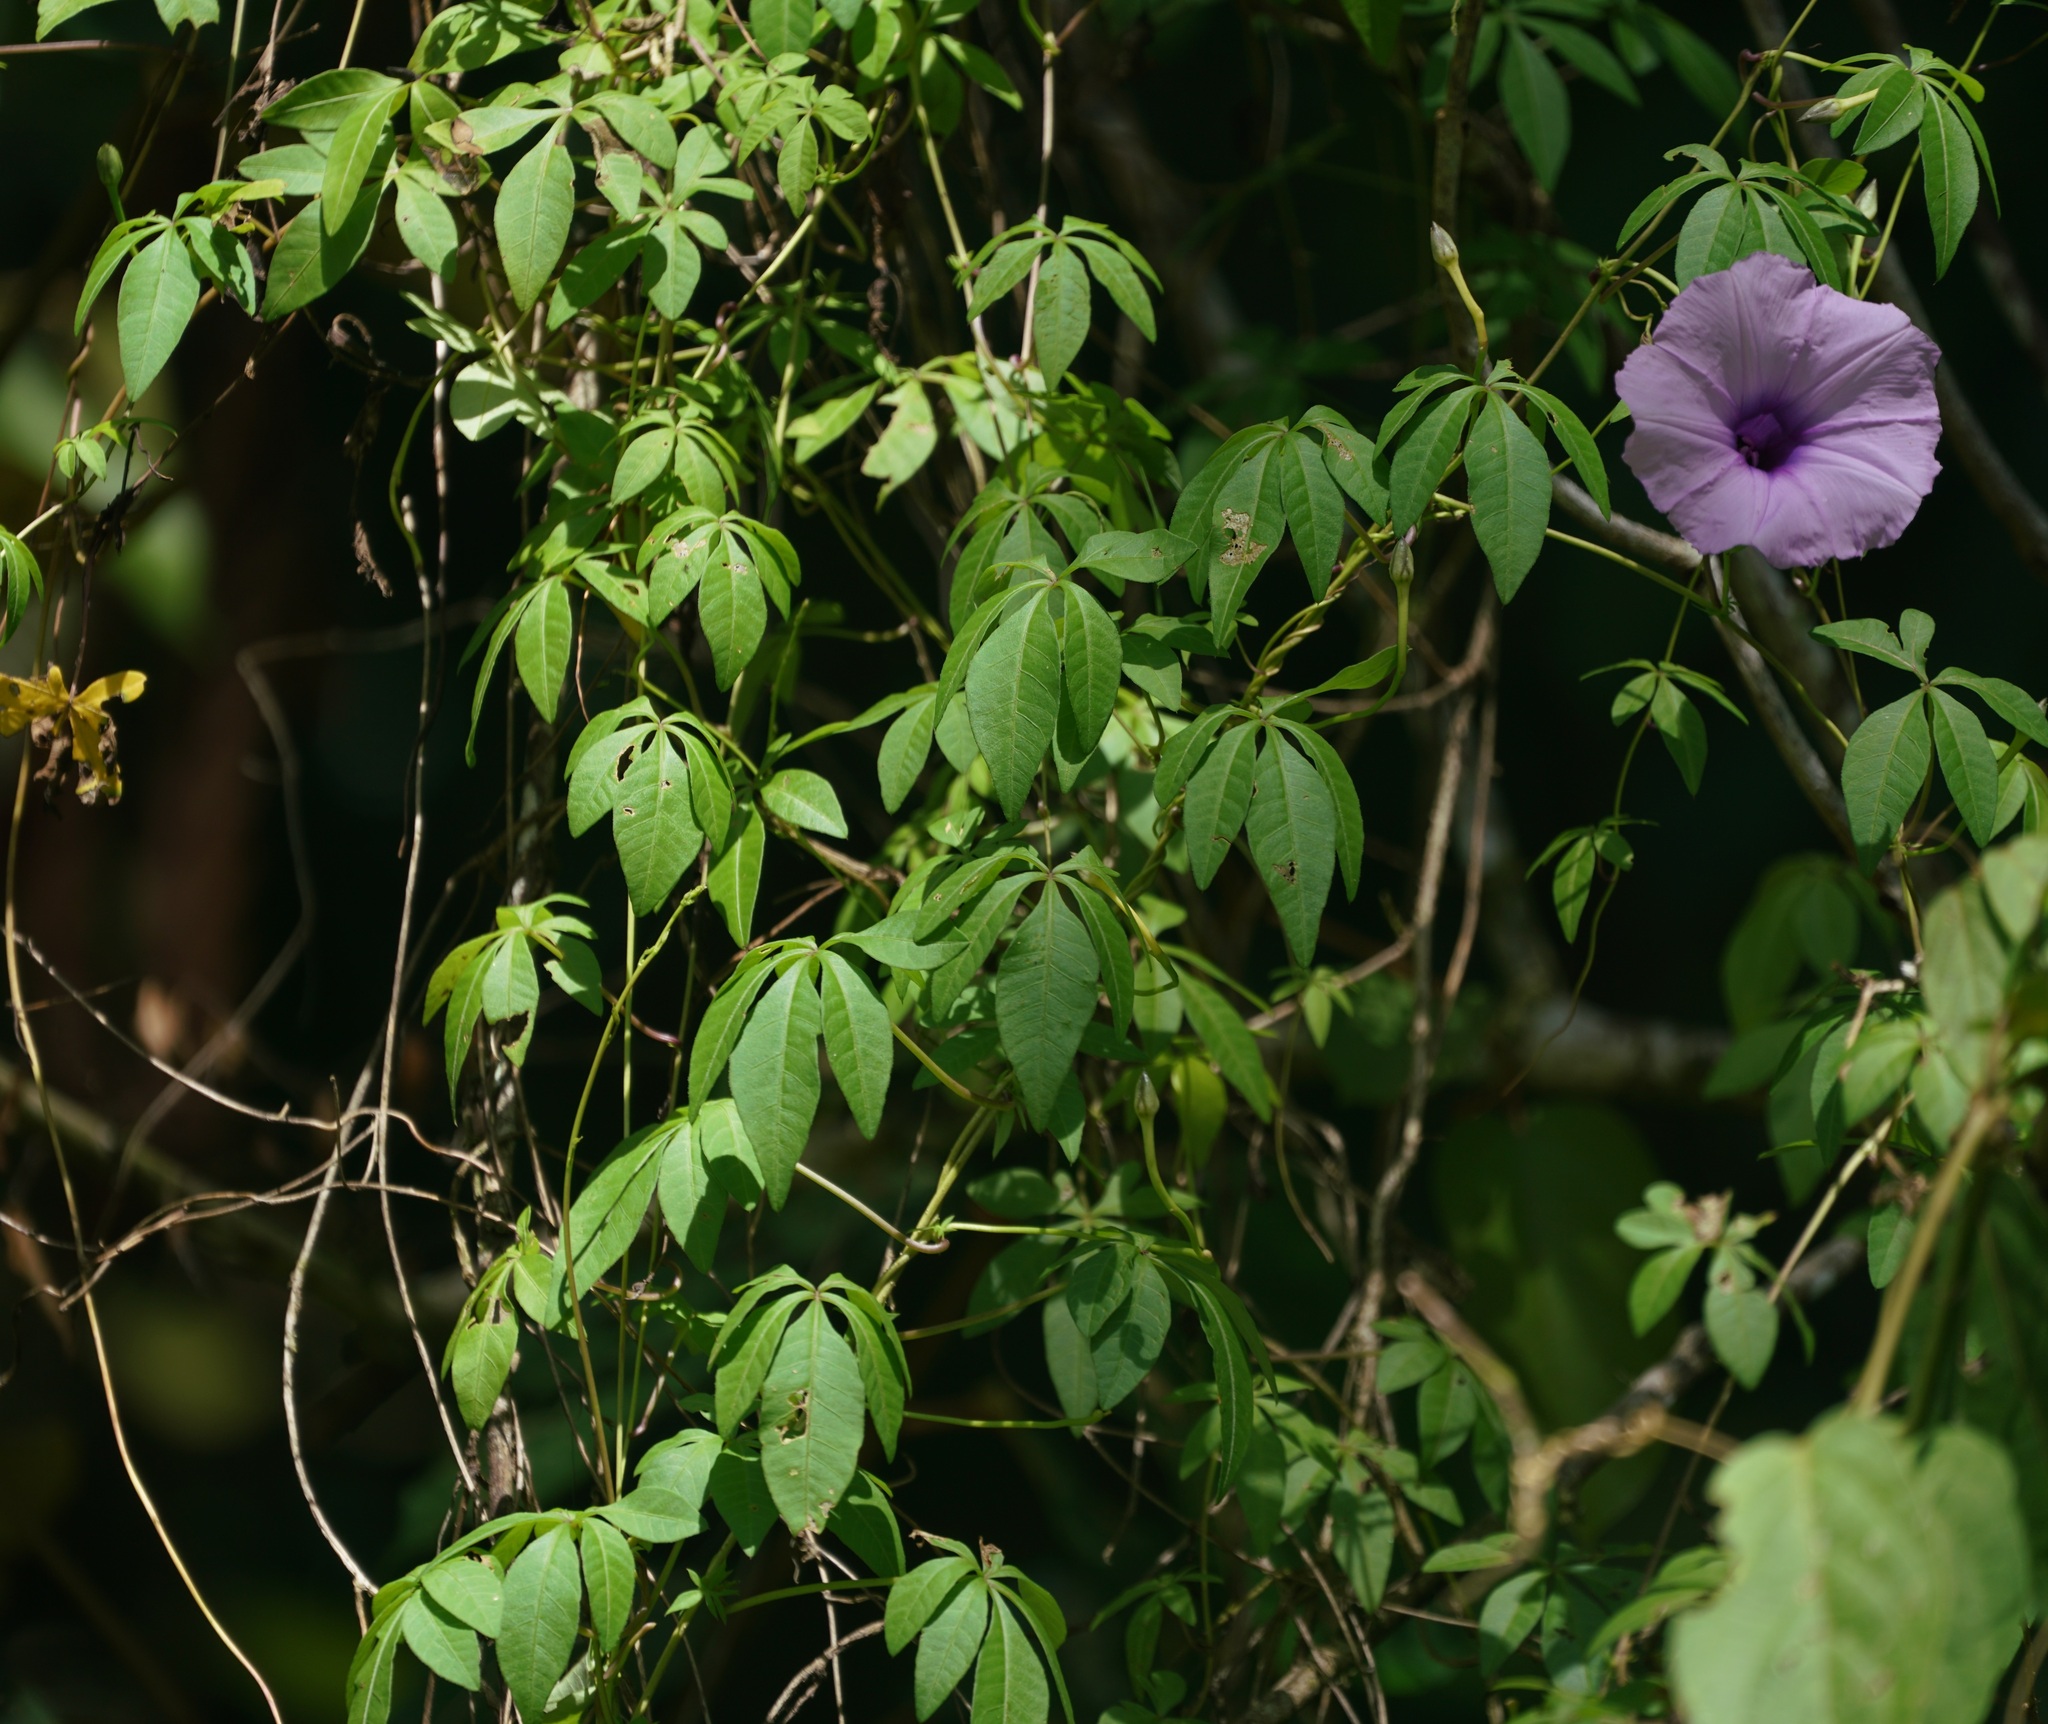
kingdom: Plantae
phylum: Tracheophyta
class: Magnoliopsida
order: Solanales
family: Convolvulaceae
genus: Ipomoea
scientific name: Ipomoea cairica
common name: Mile a minute vine
